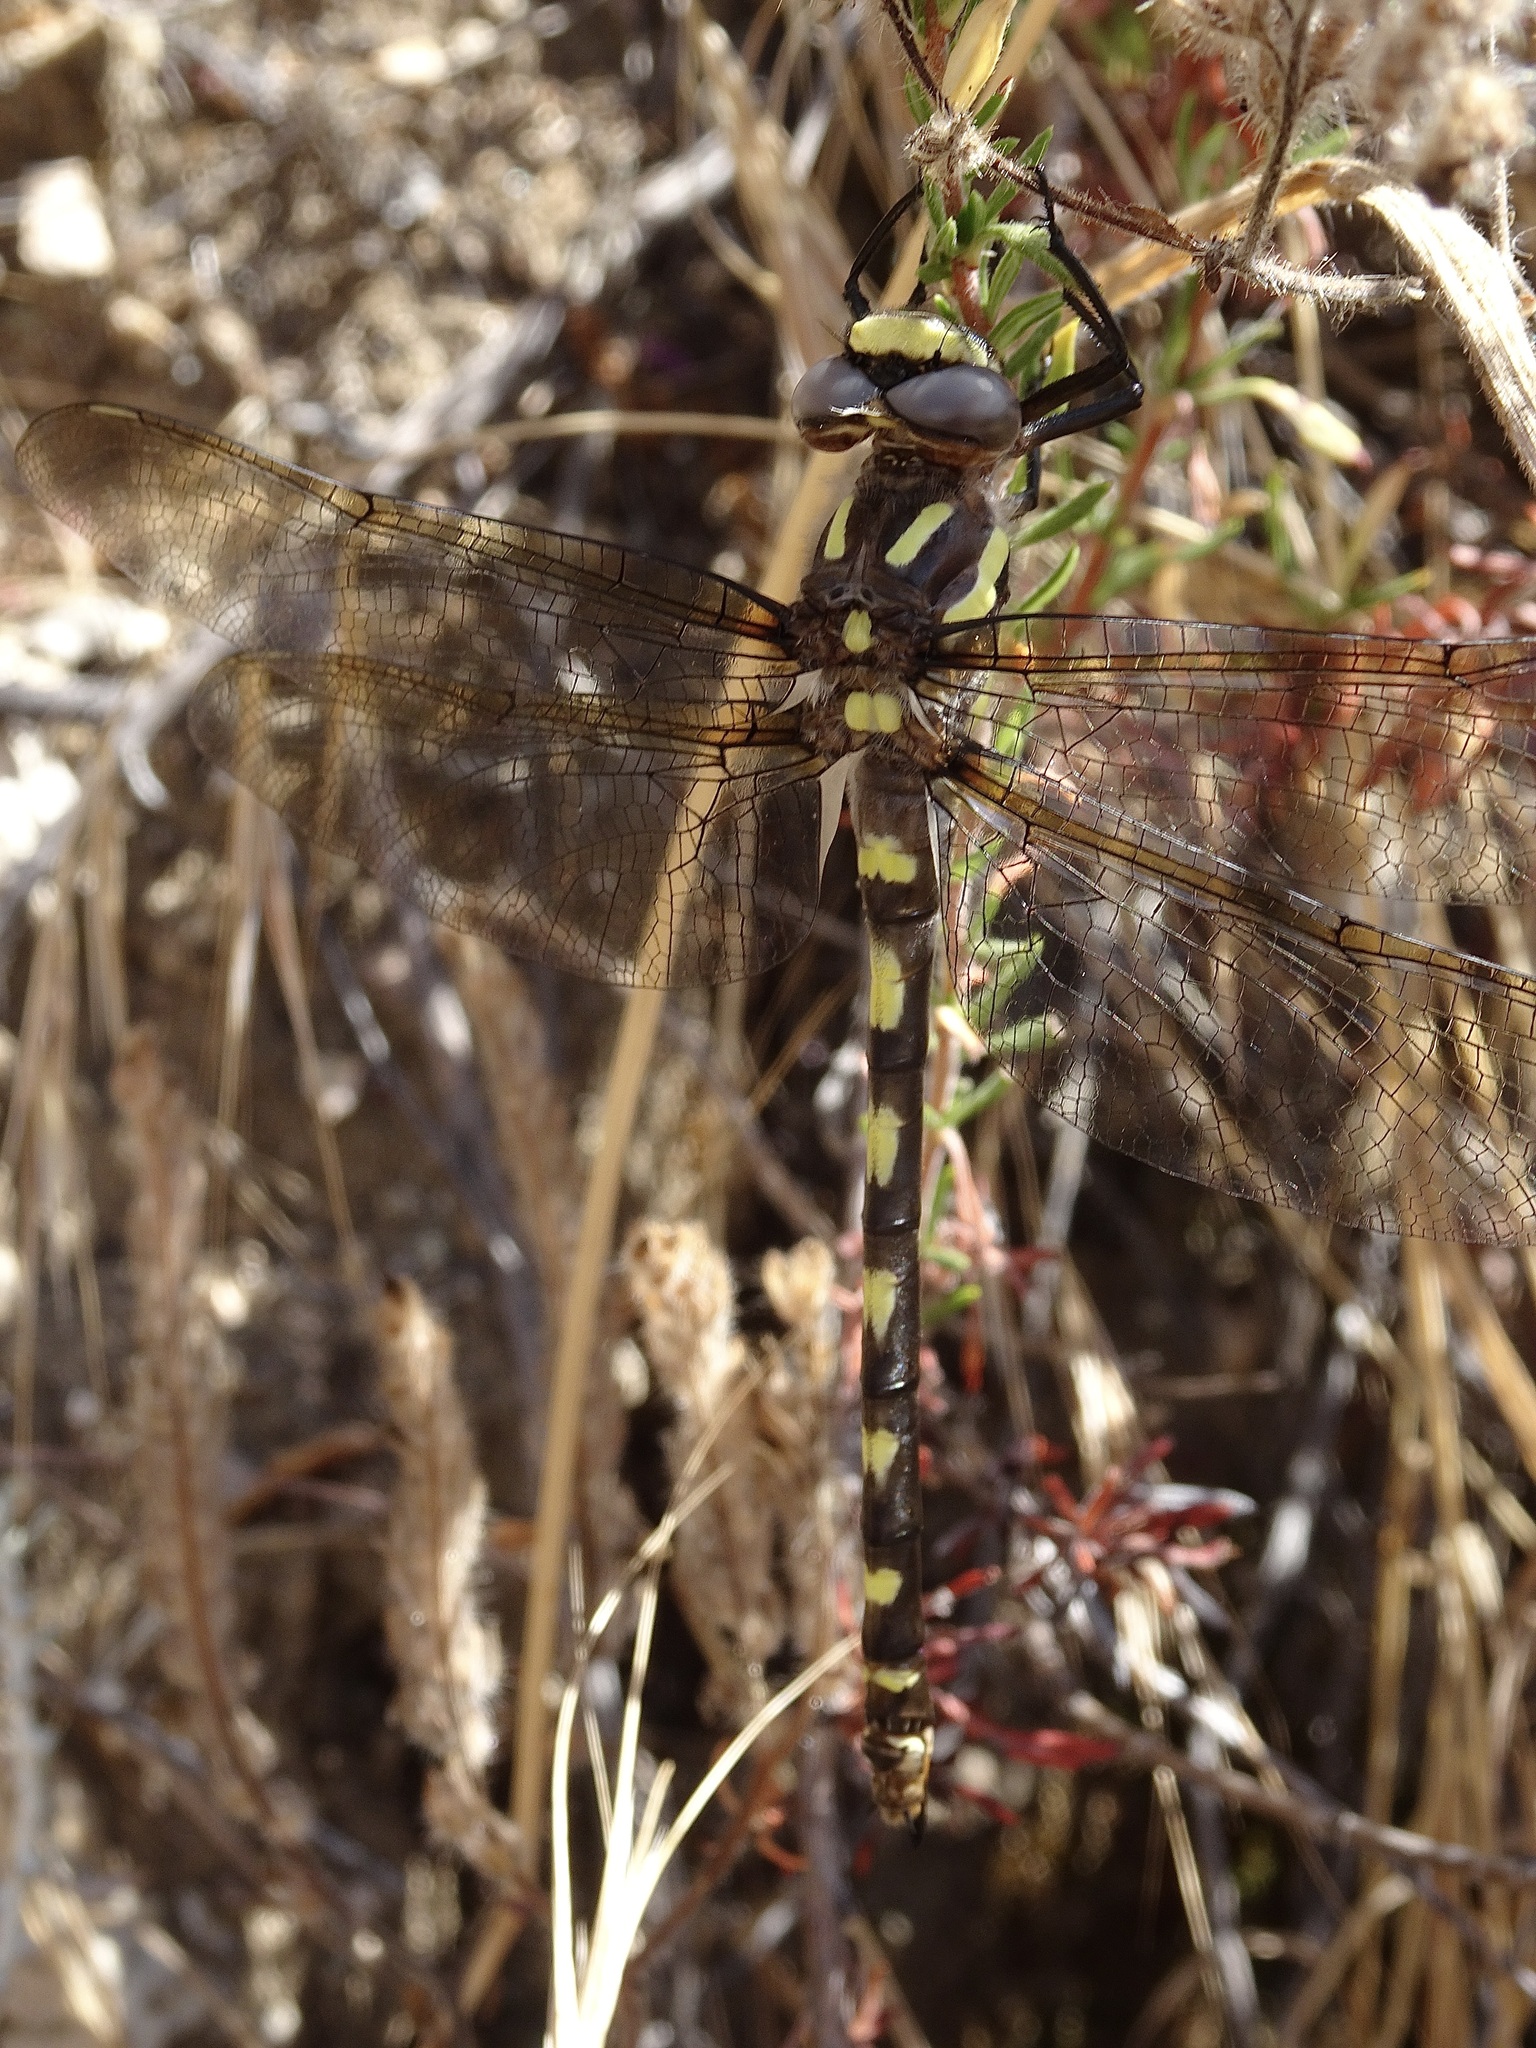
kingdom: Animalia
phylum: Arthropoda
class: Insecta
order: Odonata
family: Cordulegastridae
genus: Cordulegaster
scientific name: Cordulegaster dorsalis
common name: Pacific spiketail
